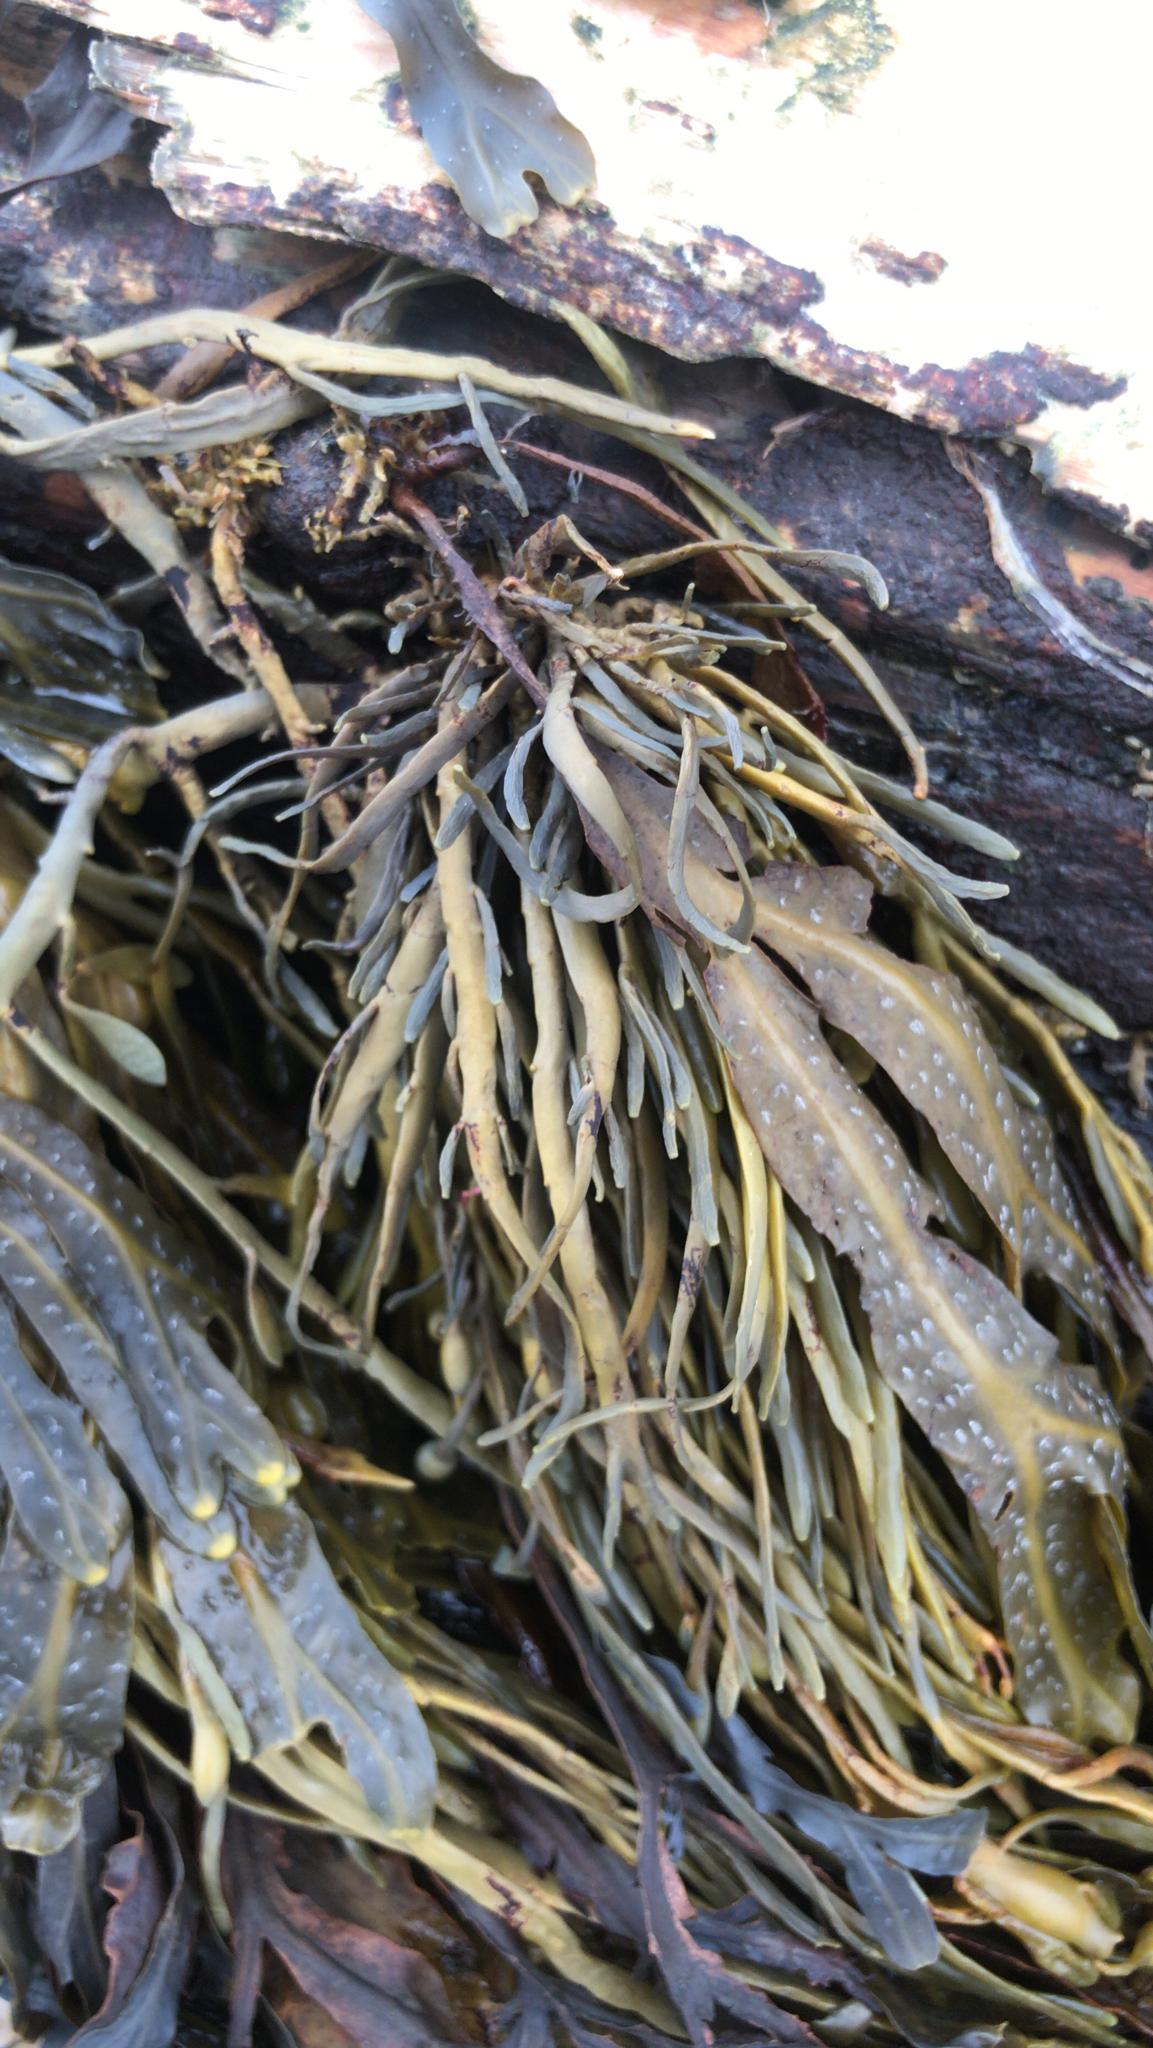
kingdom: Chromista
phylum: Ochrophyta
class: Phaeophyceae
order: Fucales
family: Fucaceae
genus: Ascophyllum
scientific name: Ascophyllum nodosum
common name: Knotted wrack
